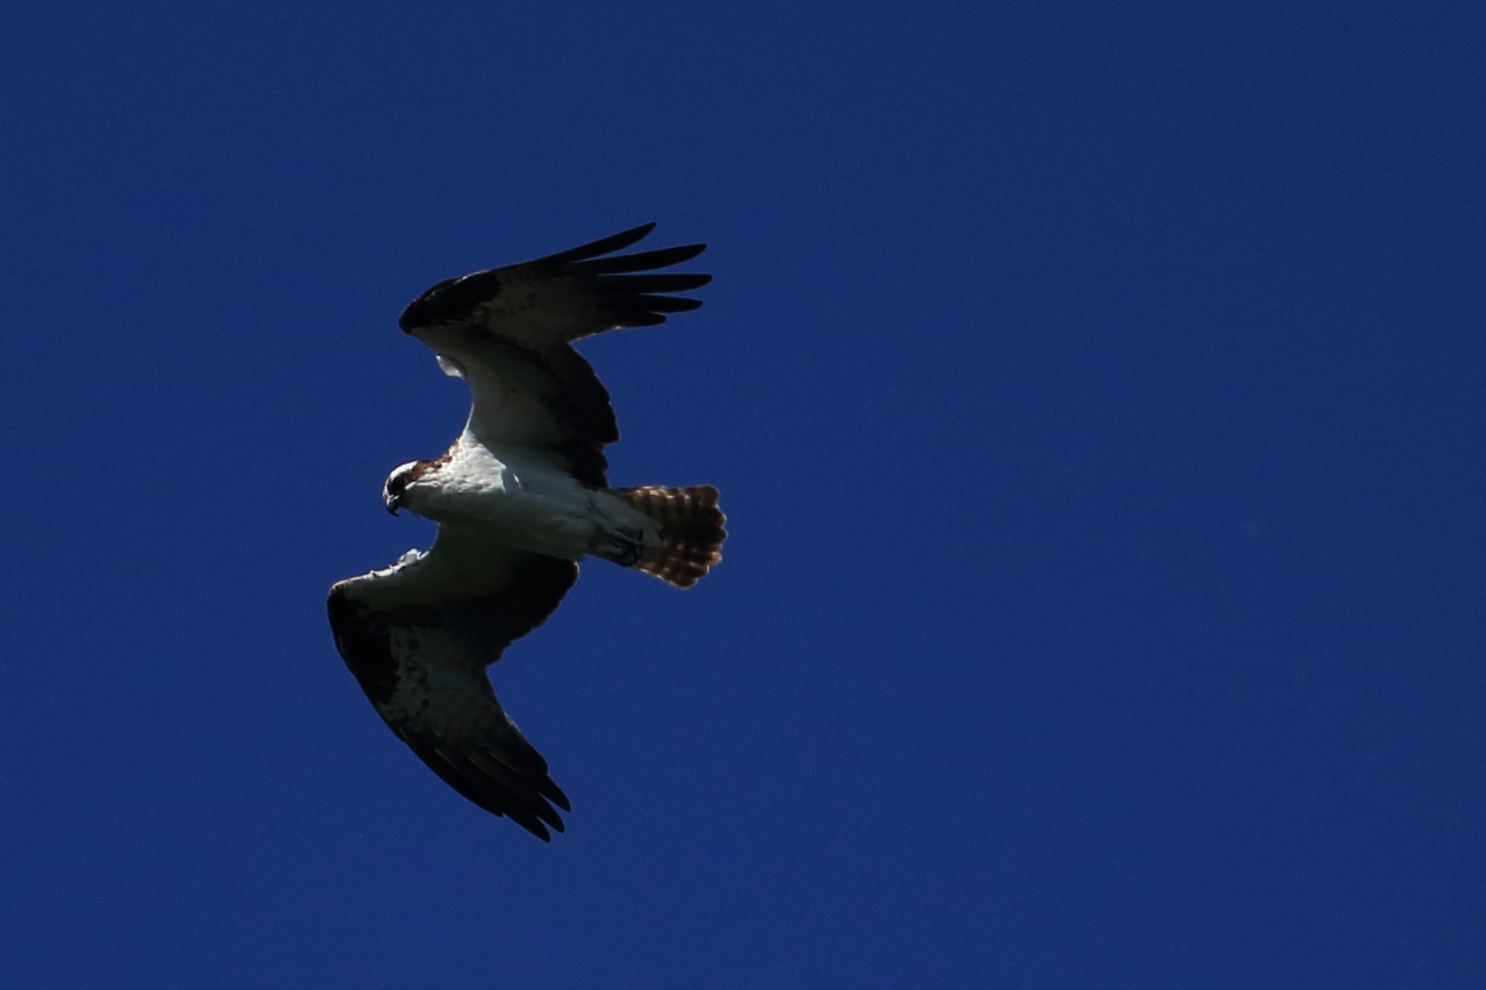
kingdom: Animalia
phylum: Chordata
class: Aves
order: Accipitriformes
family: Pandionidae
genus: Pandion
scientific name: Pandion haliaetus
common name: Osprey
